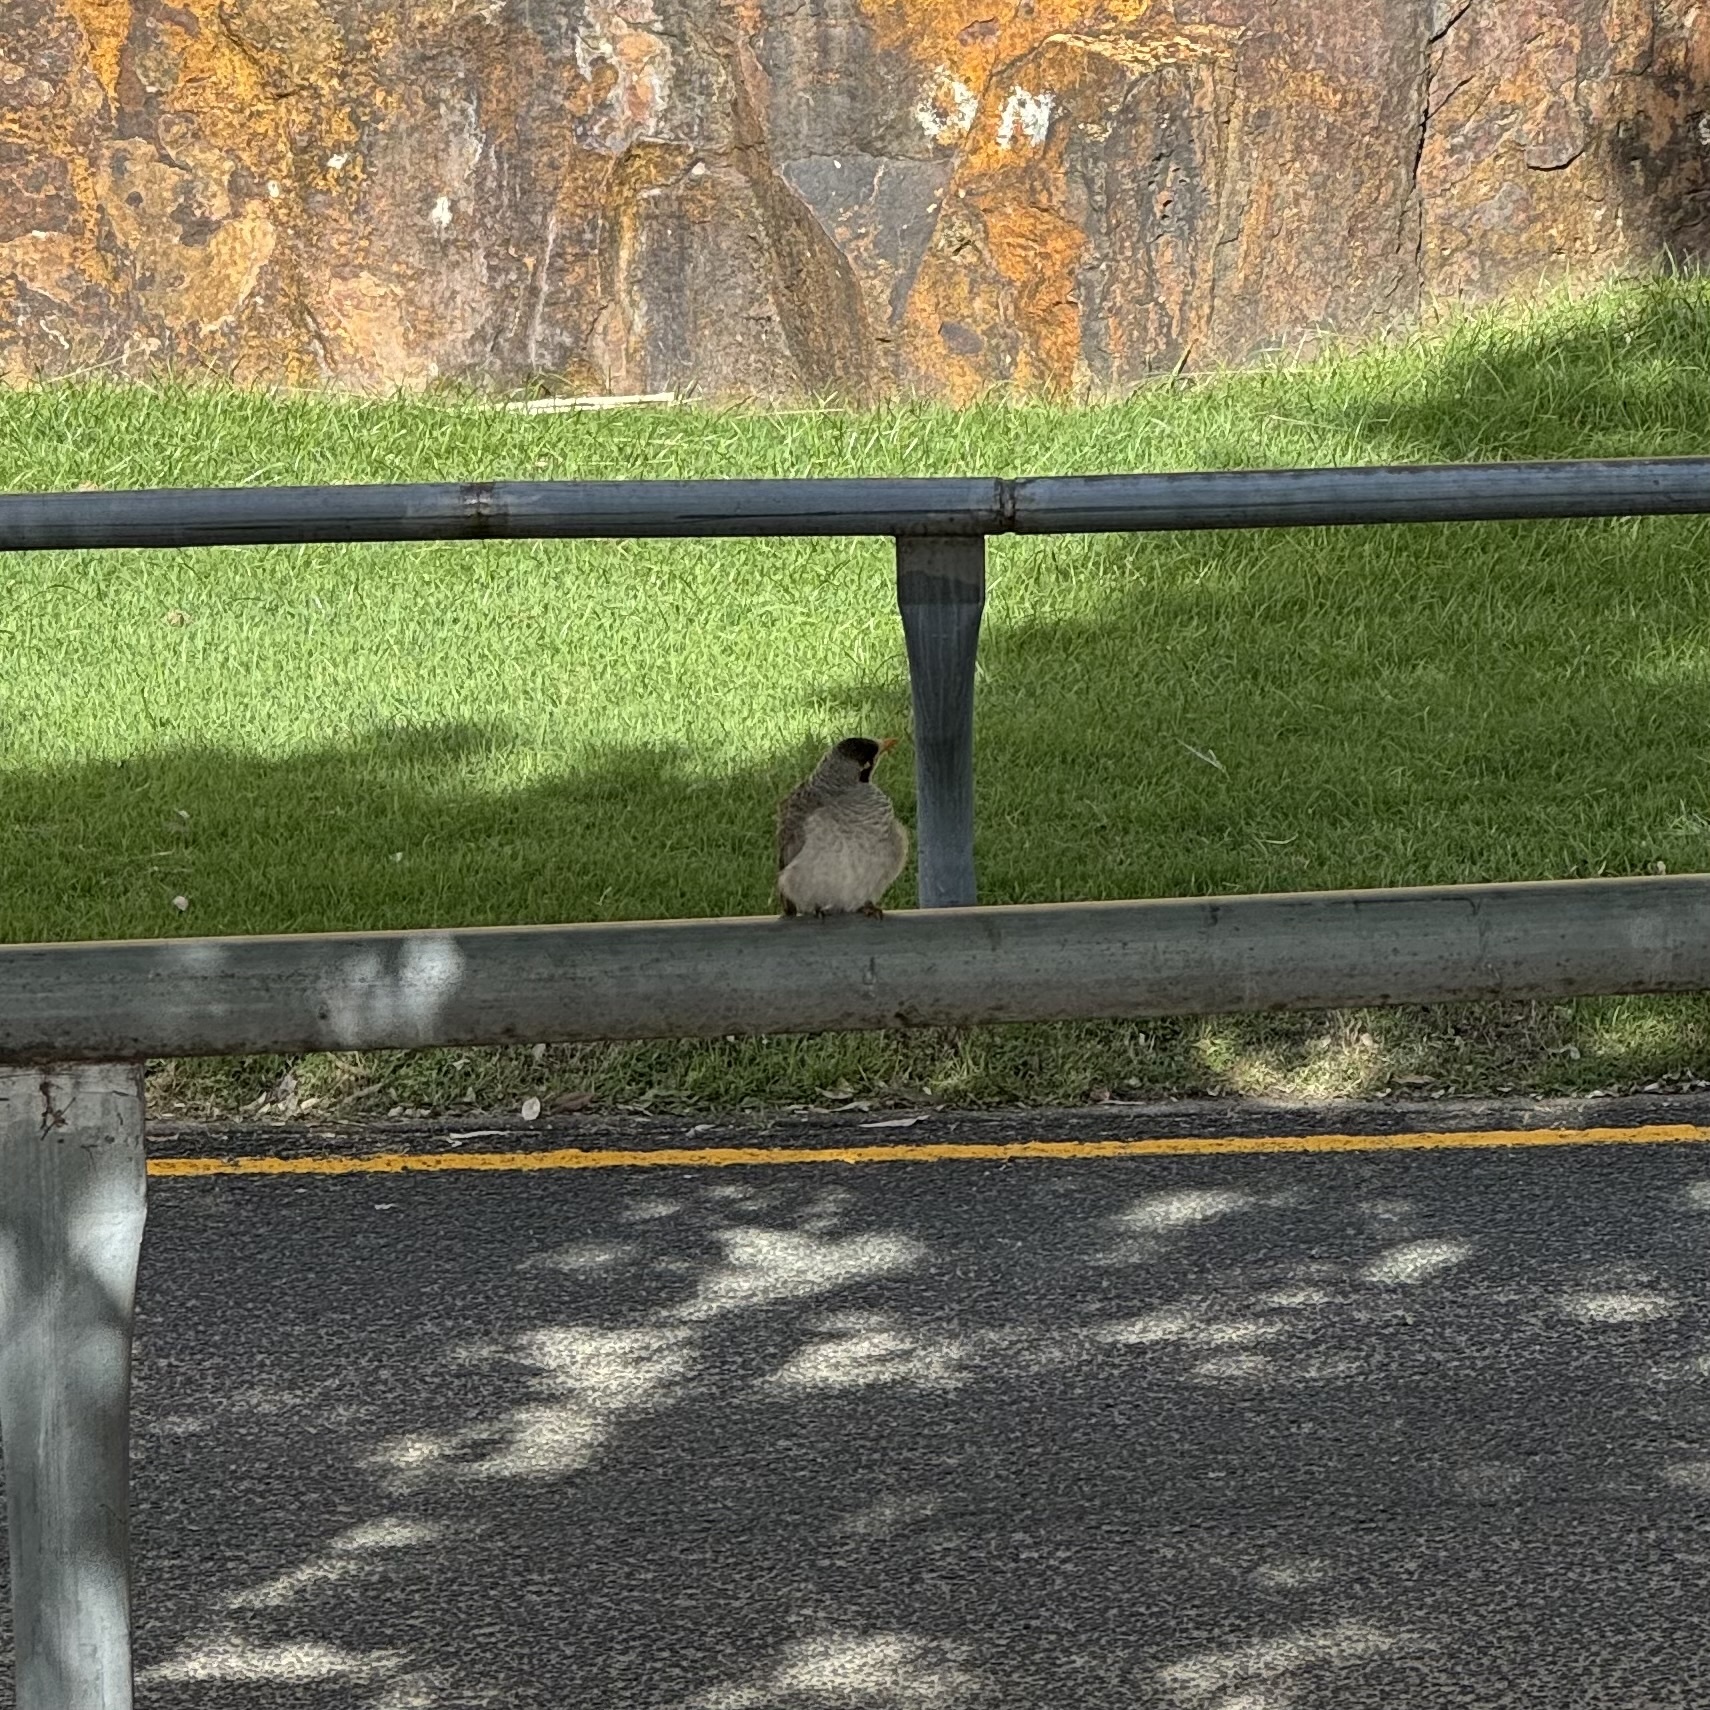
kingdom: Animalia
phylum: Chordata
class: Aves
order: Passeriformes
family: Meliphagidae
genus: Manorina
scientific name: Manorina melanocephala
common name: Noisy miner
